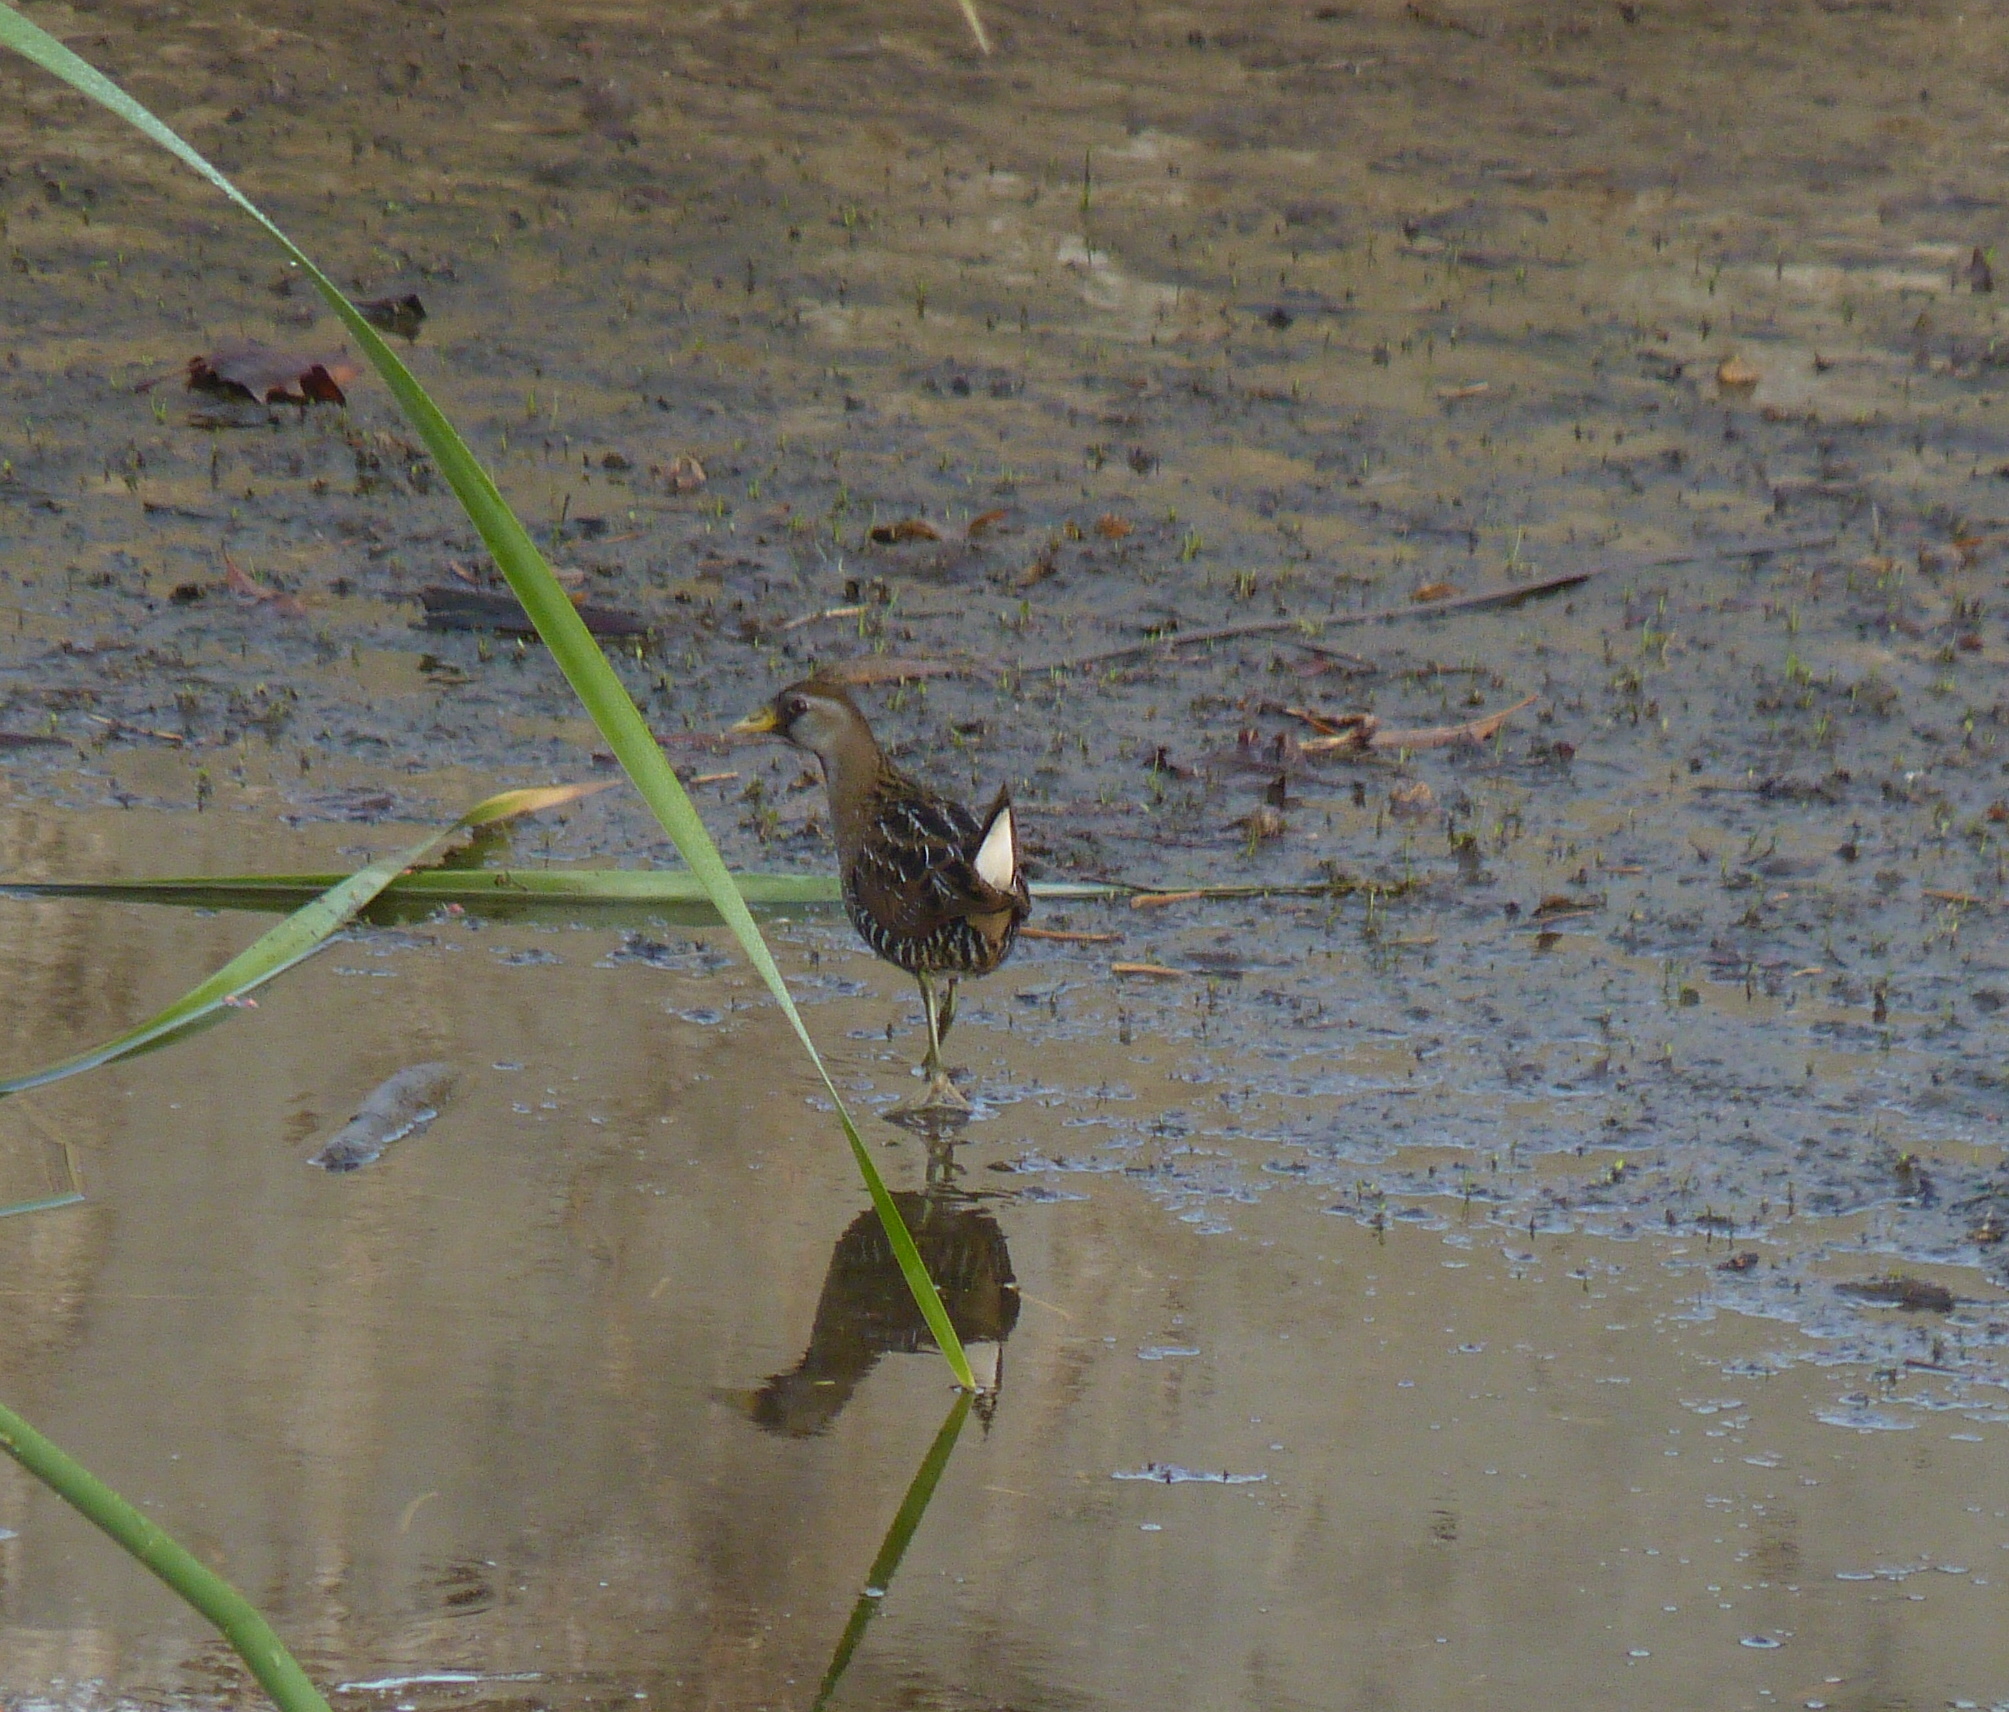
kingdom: Animalia
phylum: Chordata
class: Aves
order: Gruiformes
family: Rallidae
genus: Porzana
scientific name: Porzana carolina
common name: Sora
